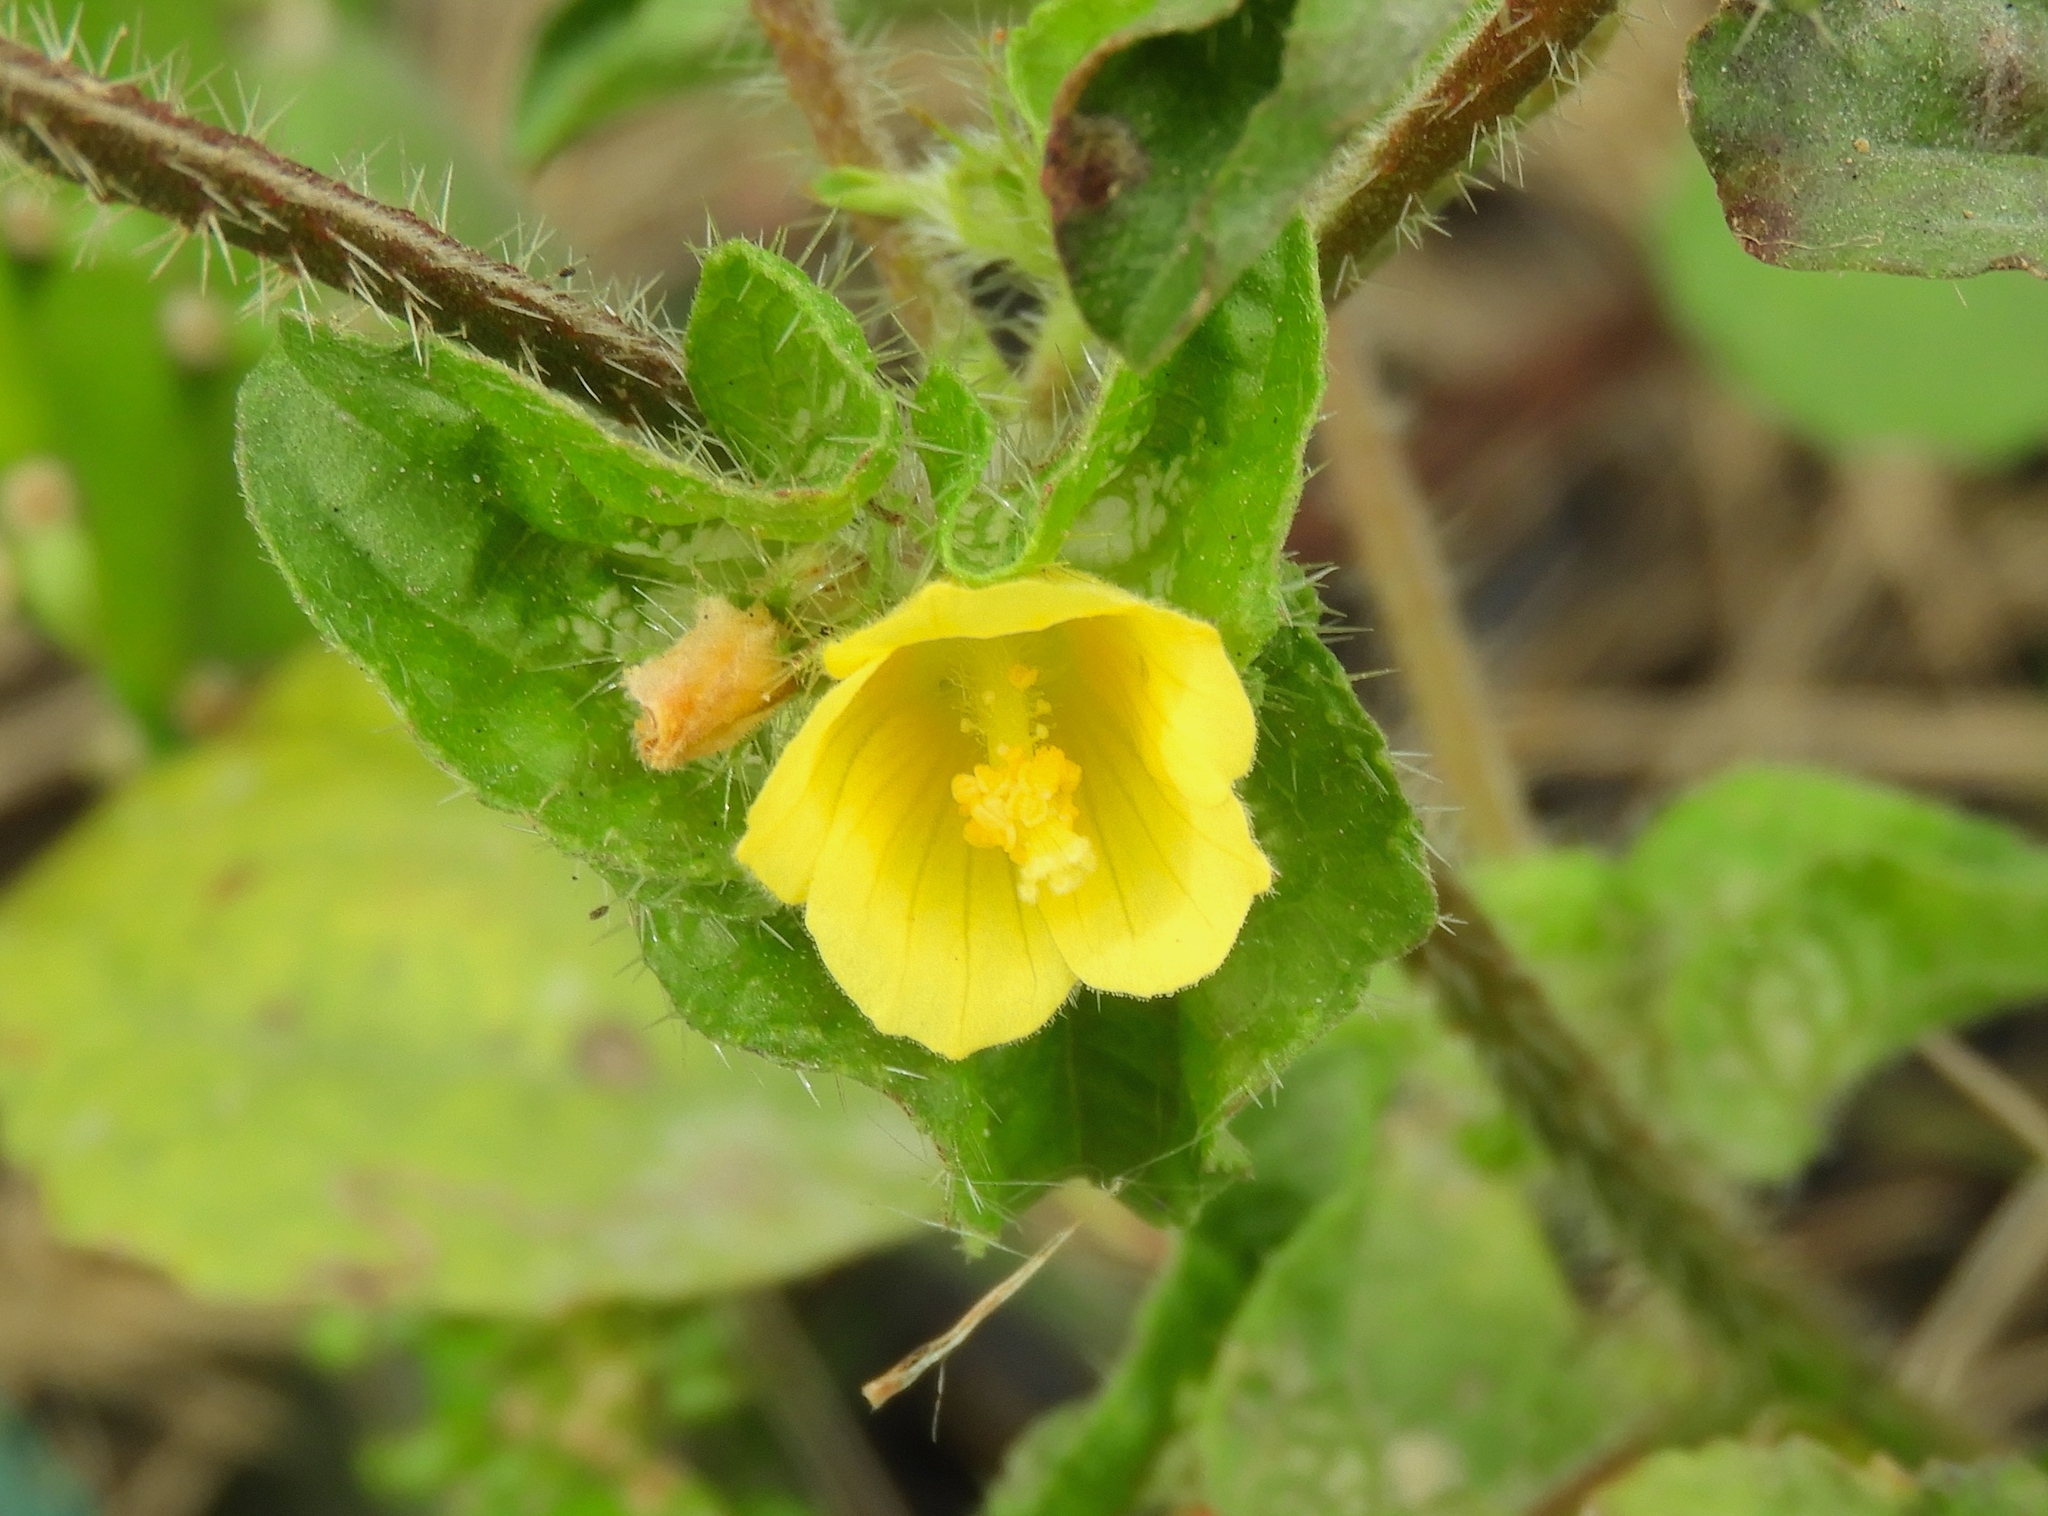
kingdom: Plantae
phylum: Tracheophyta
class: Magnoliopsida
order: Malvales
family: Malvaceae
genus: Malachra
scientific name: Malachra alceifolia
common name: Yellow leafbract
